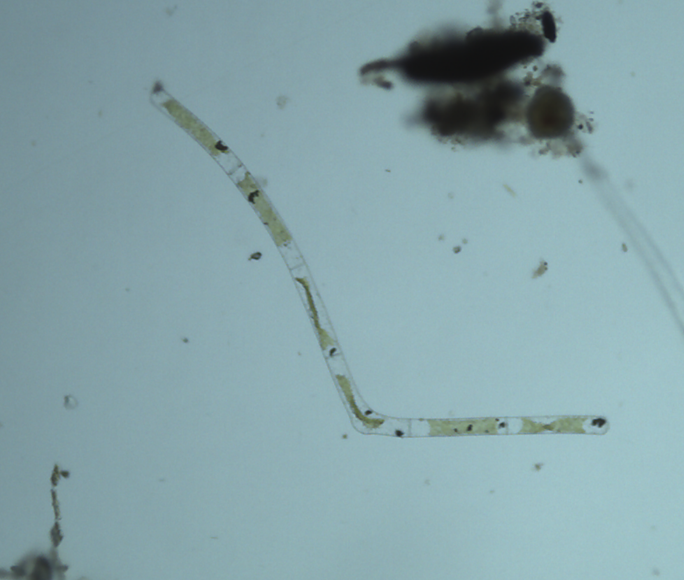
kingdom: Plantae
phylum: Charophyta
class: Zygnematophyceae
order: Zygnematales
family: Zygnemataceae
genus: Mougeotia
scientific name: Mougeotia
